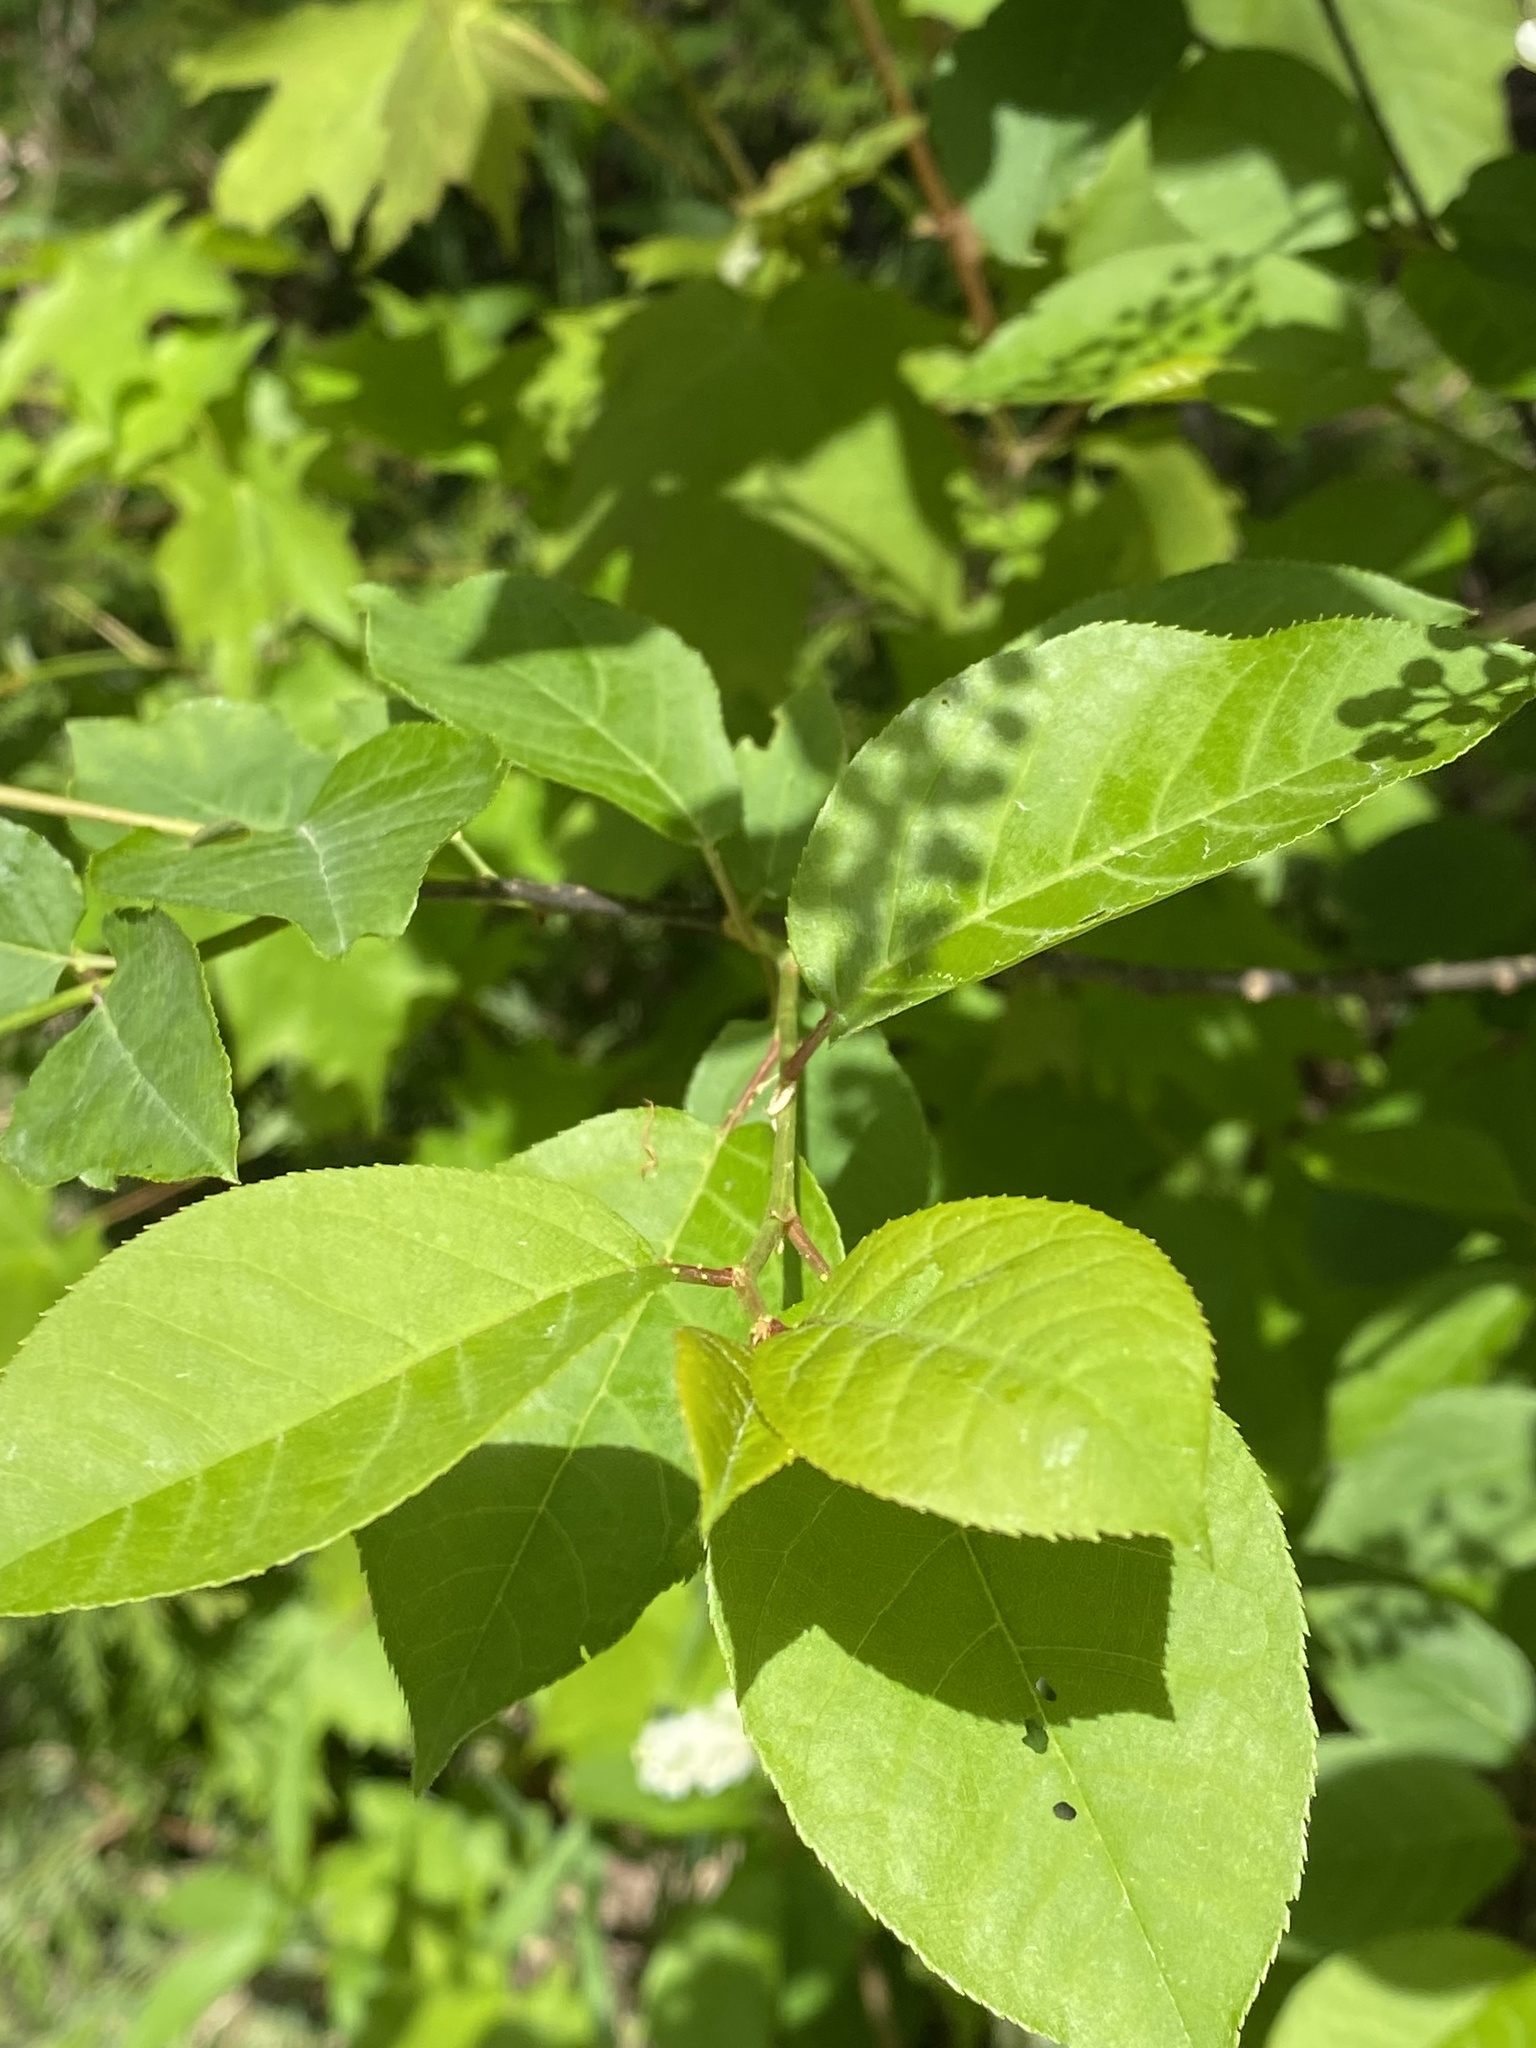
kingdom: Plantae
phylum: Tracheophyta
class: Magnoliopsida
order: Rosales
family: Rosaceae
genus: Prunus
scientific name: Prunus virginiana
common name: Chokecherry
